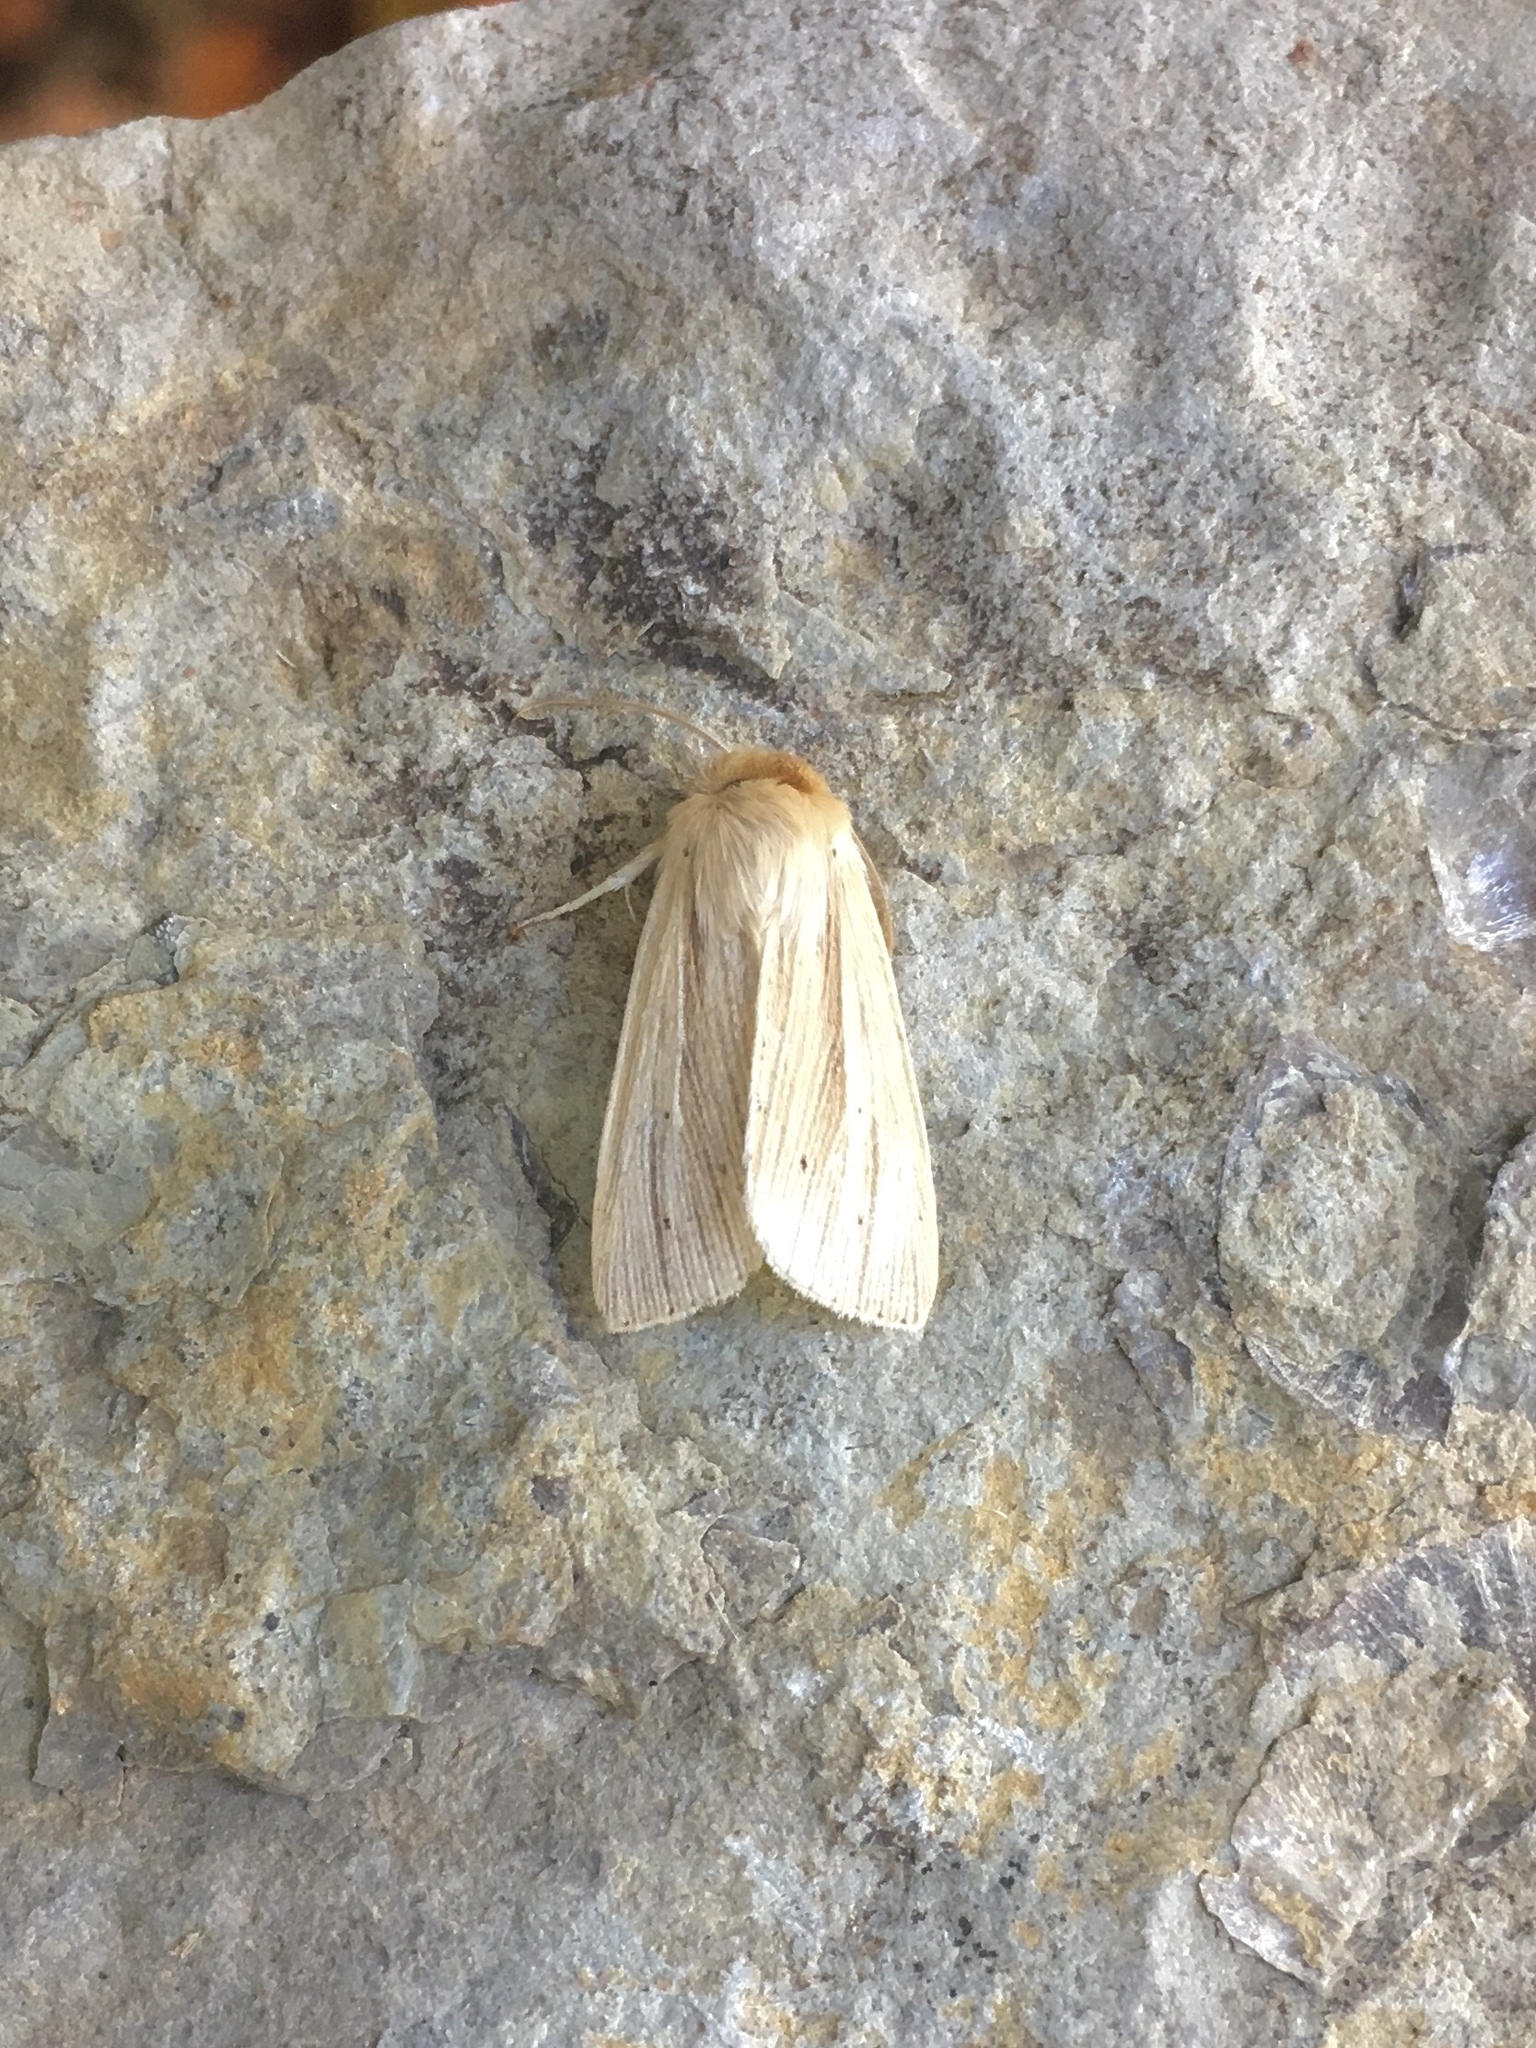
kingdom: Animalia
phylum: Arthropoda
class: Insecta
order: Lepidoptera
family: Noctuidae
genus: Mythimna
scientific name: Mythimna oxygala
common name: Lesser wainscot
